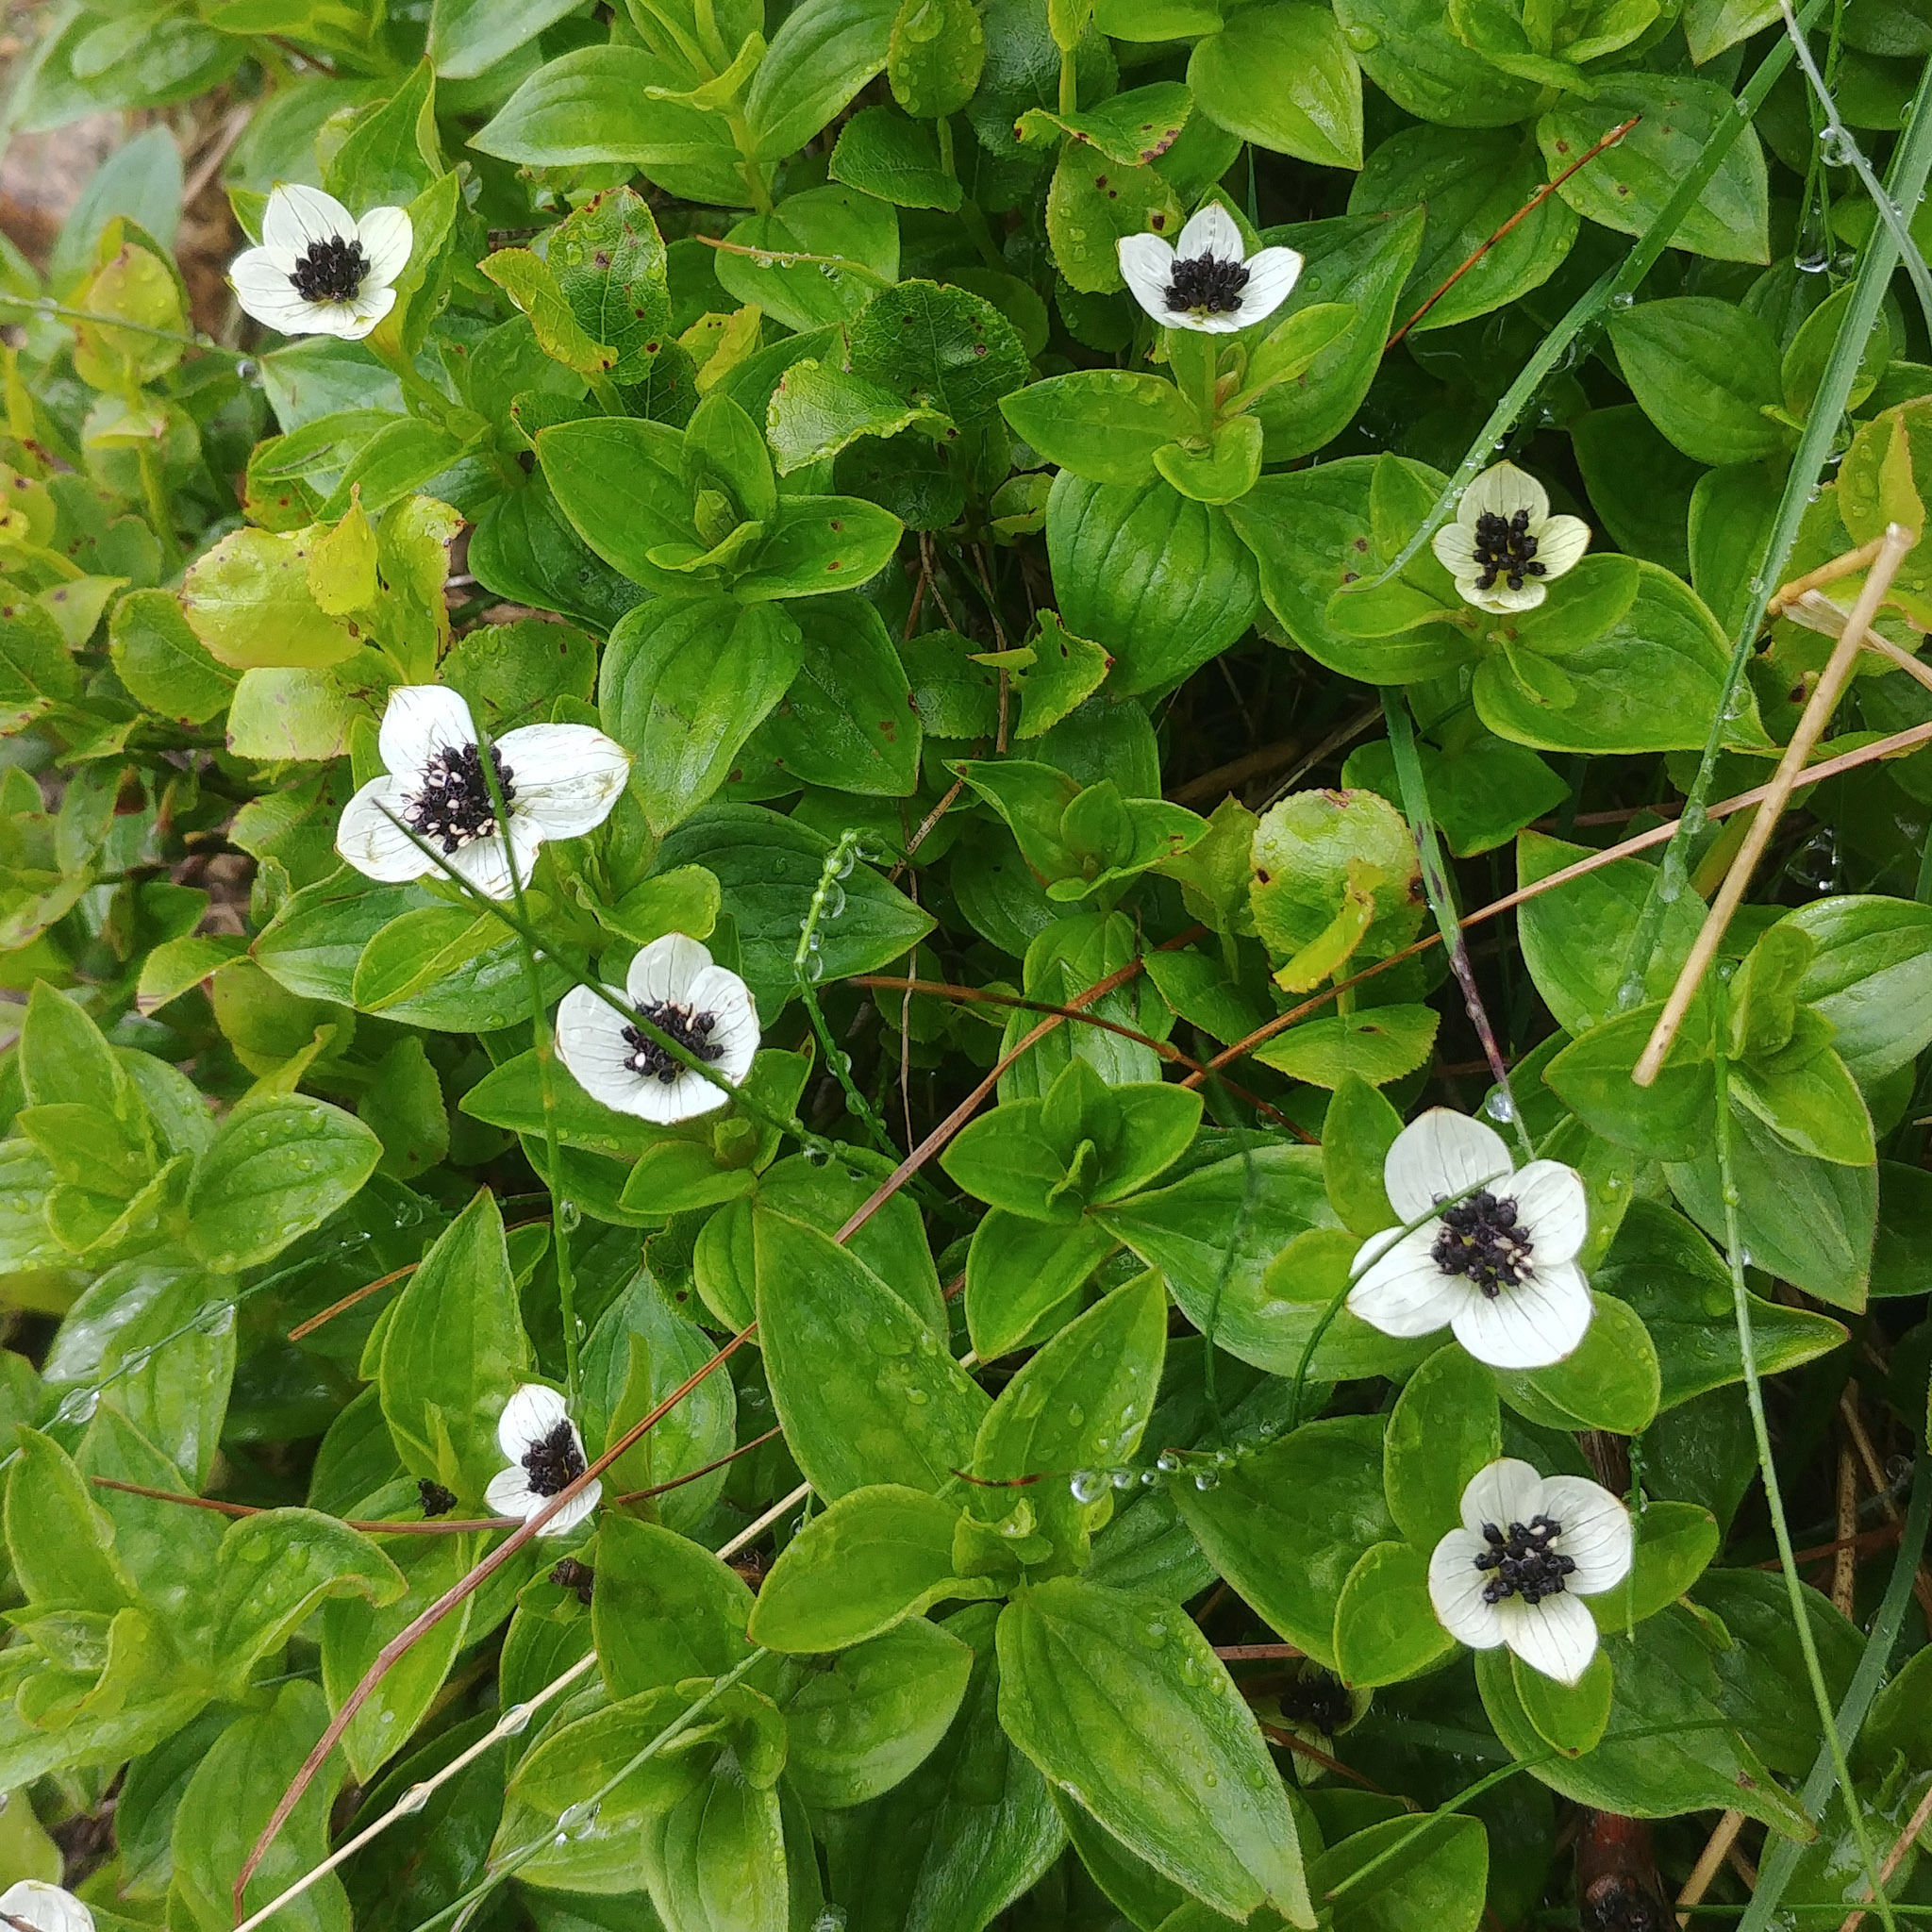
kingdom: Plantae
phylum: Tracheophyta
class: Magnoliopsida
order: Cornales
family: Cornaceae
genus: Cornus
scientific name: Cornus suecica
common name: Dwarf cornel
